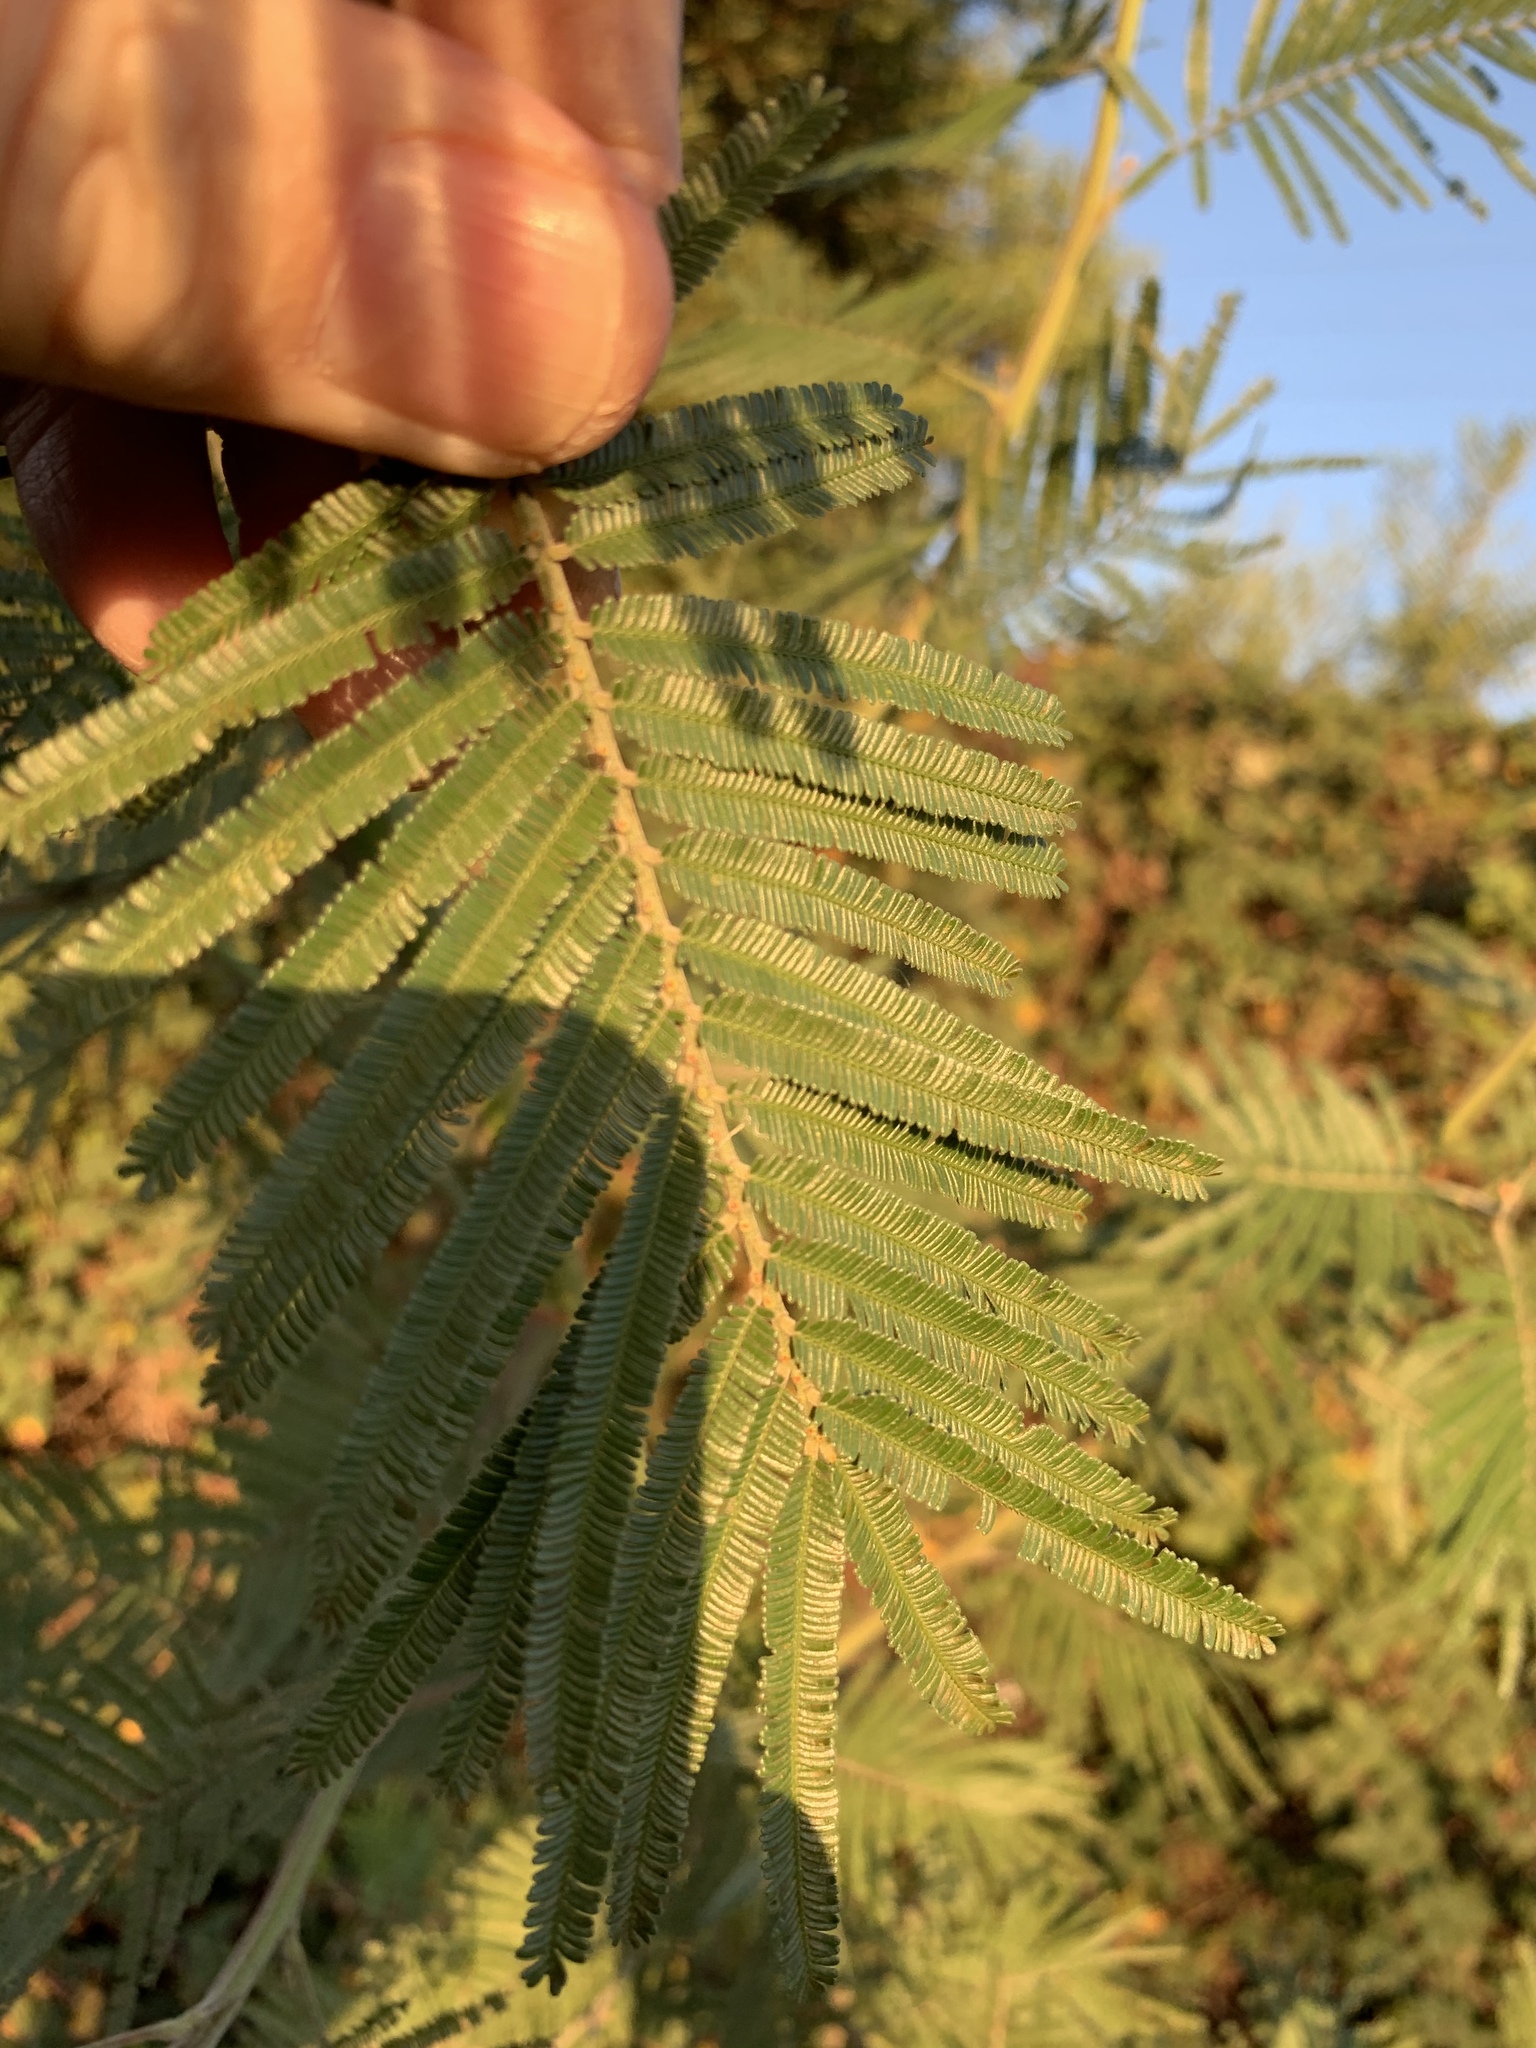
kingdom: Plantae
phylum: Tracheophyta
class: Magnoliopsida
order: Fabales
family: Fabaceae
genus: Acacia
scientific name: Acacia mearnsii
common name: Black wattle
